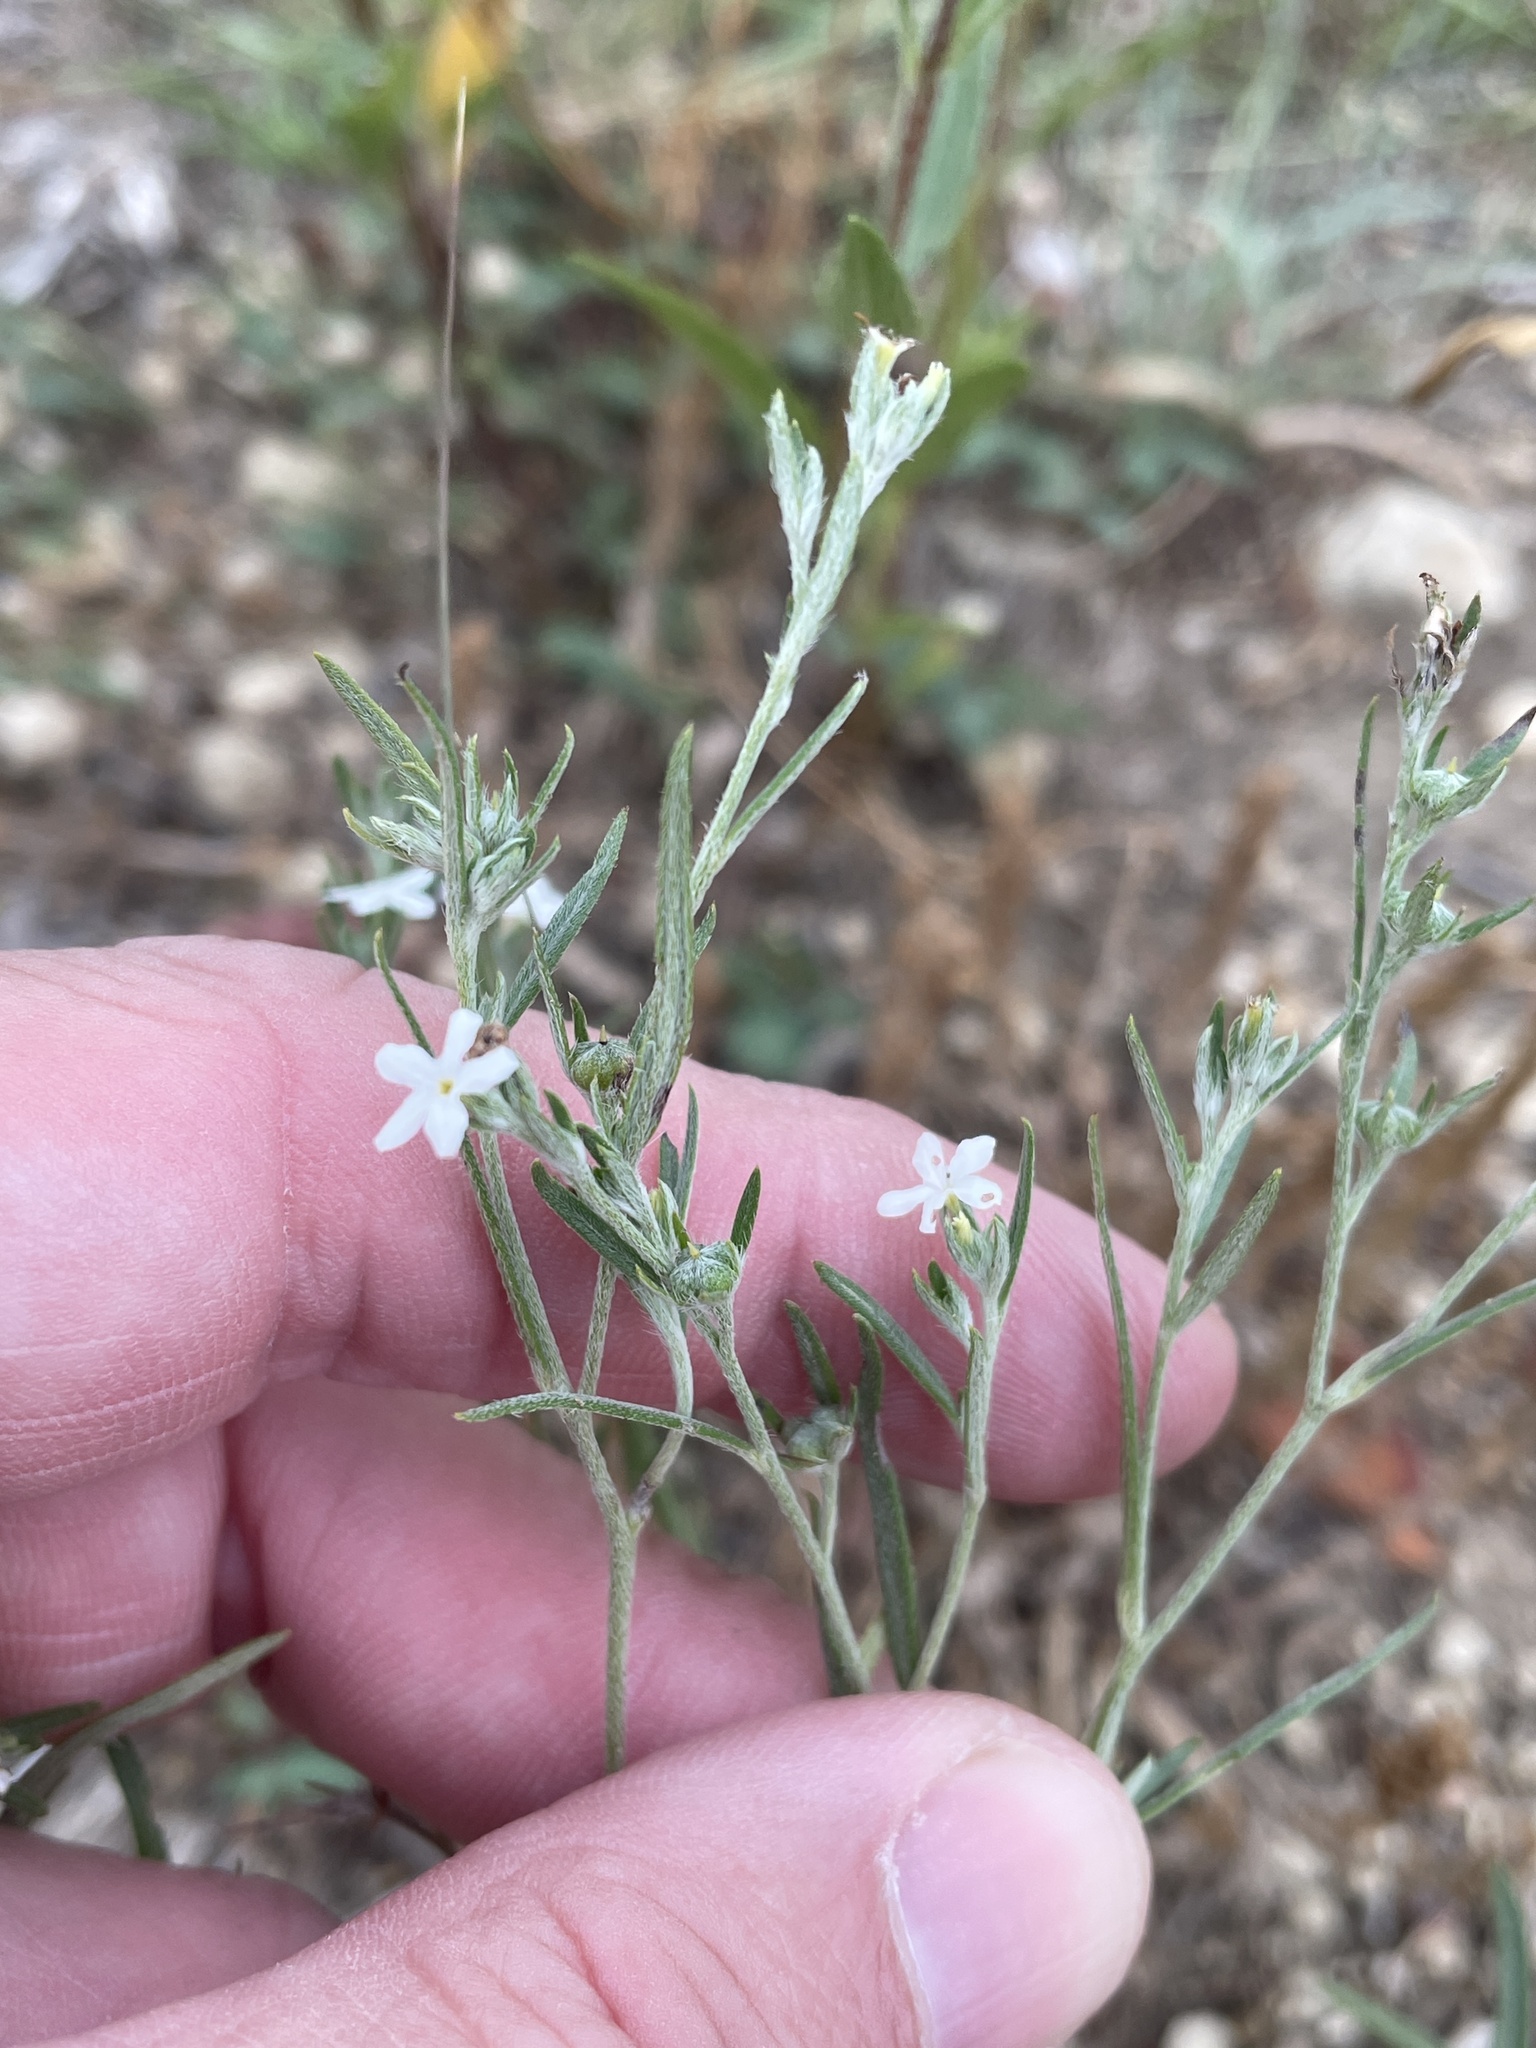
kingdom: Plantae
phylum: Tracheophyta
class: Magnoliopsida
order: Boraginales
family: Heliotropiaceae
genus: Euploca
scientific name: Euploca tenella
